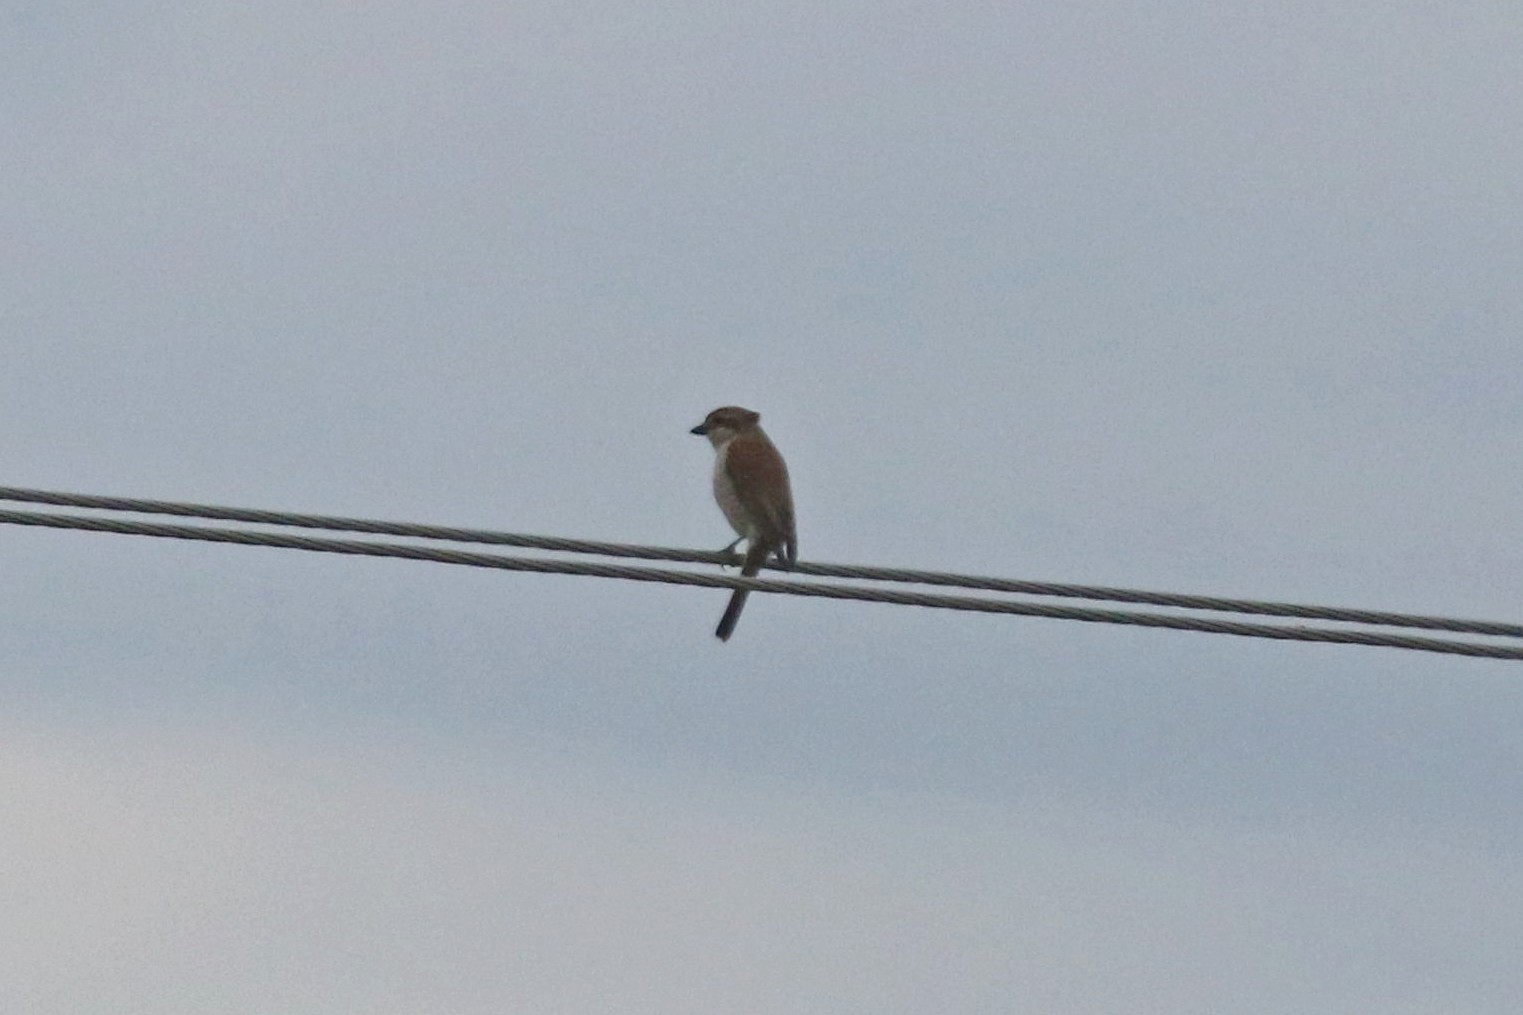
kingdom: Animalia
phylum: Chordata
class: Aves
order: Passeriformes
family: Laniidae
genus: Lanius
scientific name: Lanius collurio
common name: Red-backed shrike
